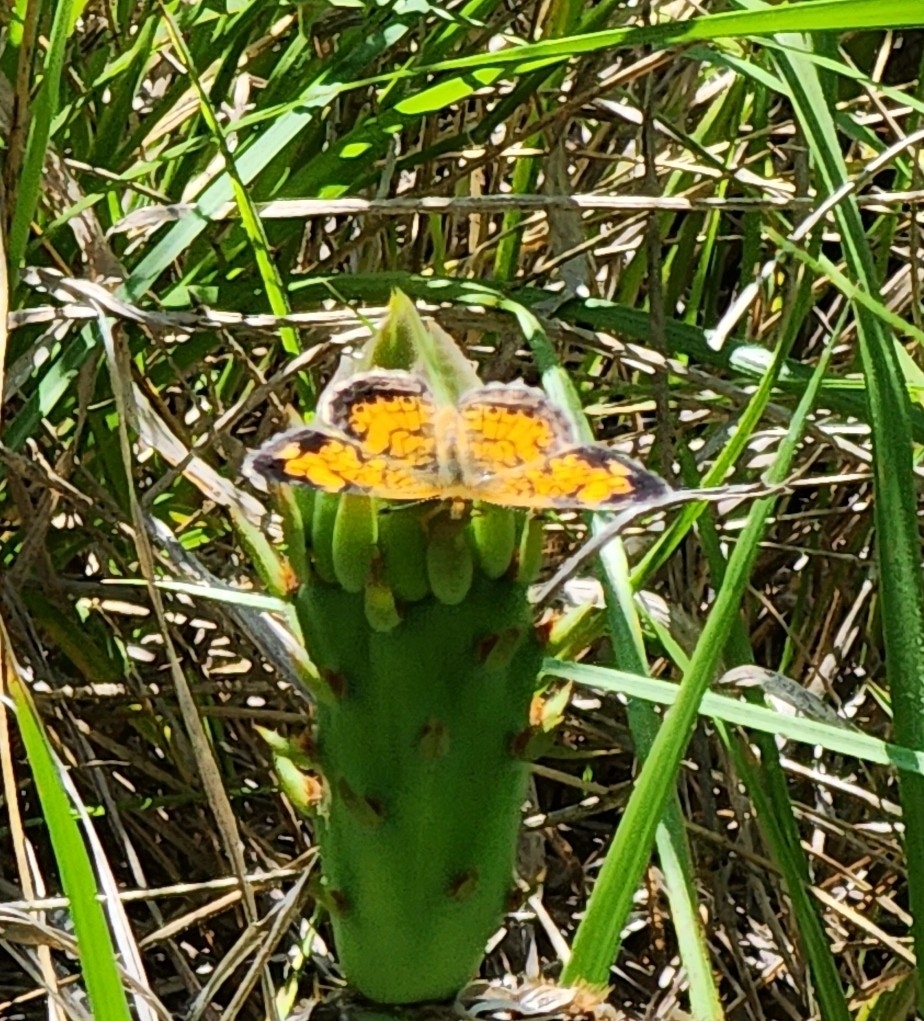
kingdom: Animalia
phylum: Arthropoda
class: Insecta
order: Lepidoptera
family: Nymphalidae
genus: Phyciodes
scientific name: Phyciodes tharos
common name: Pearl crescent
